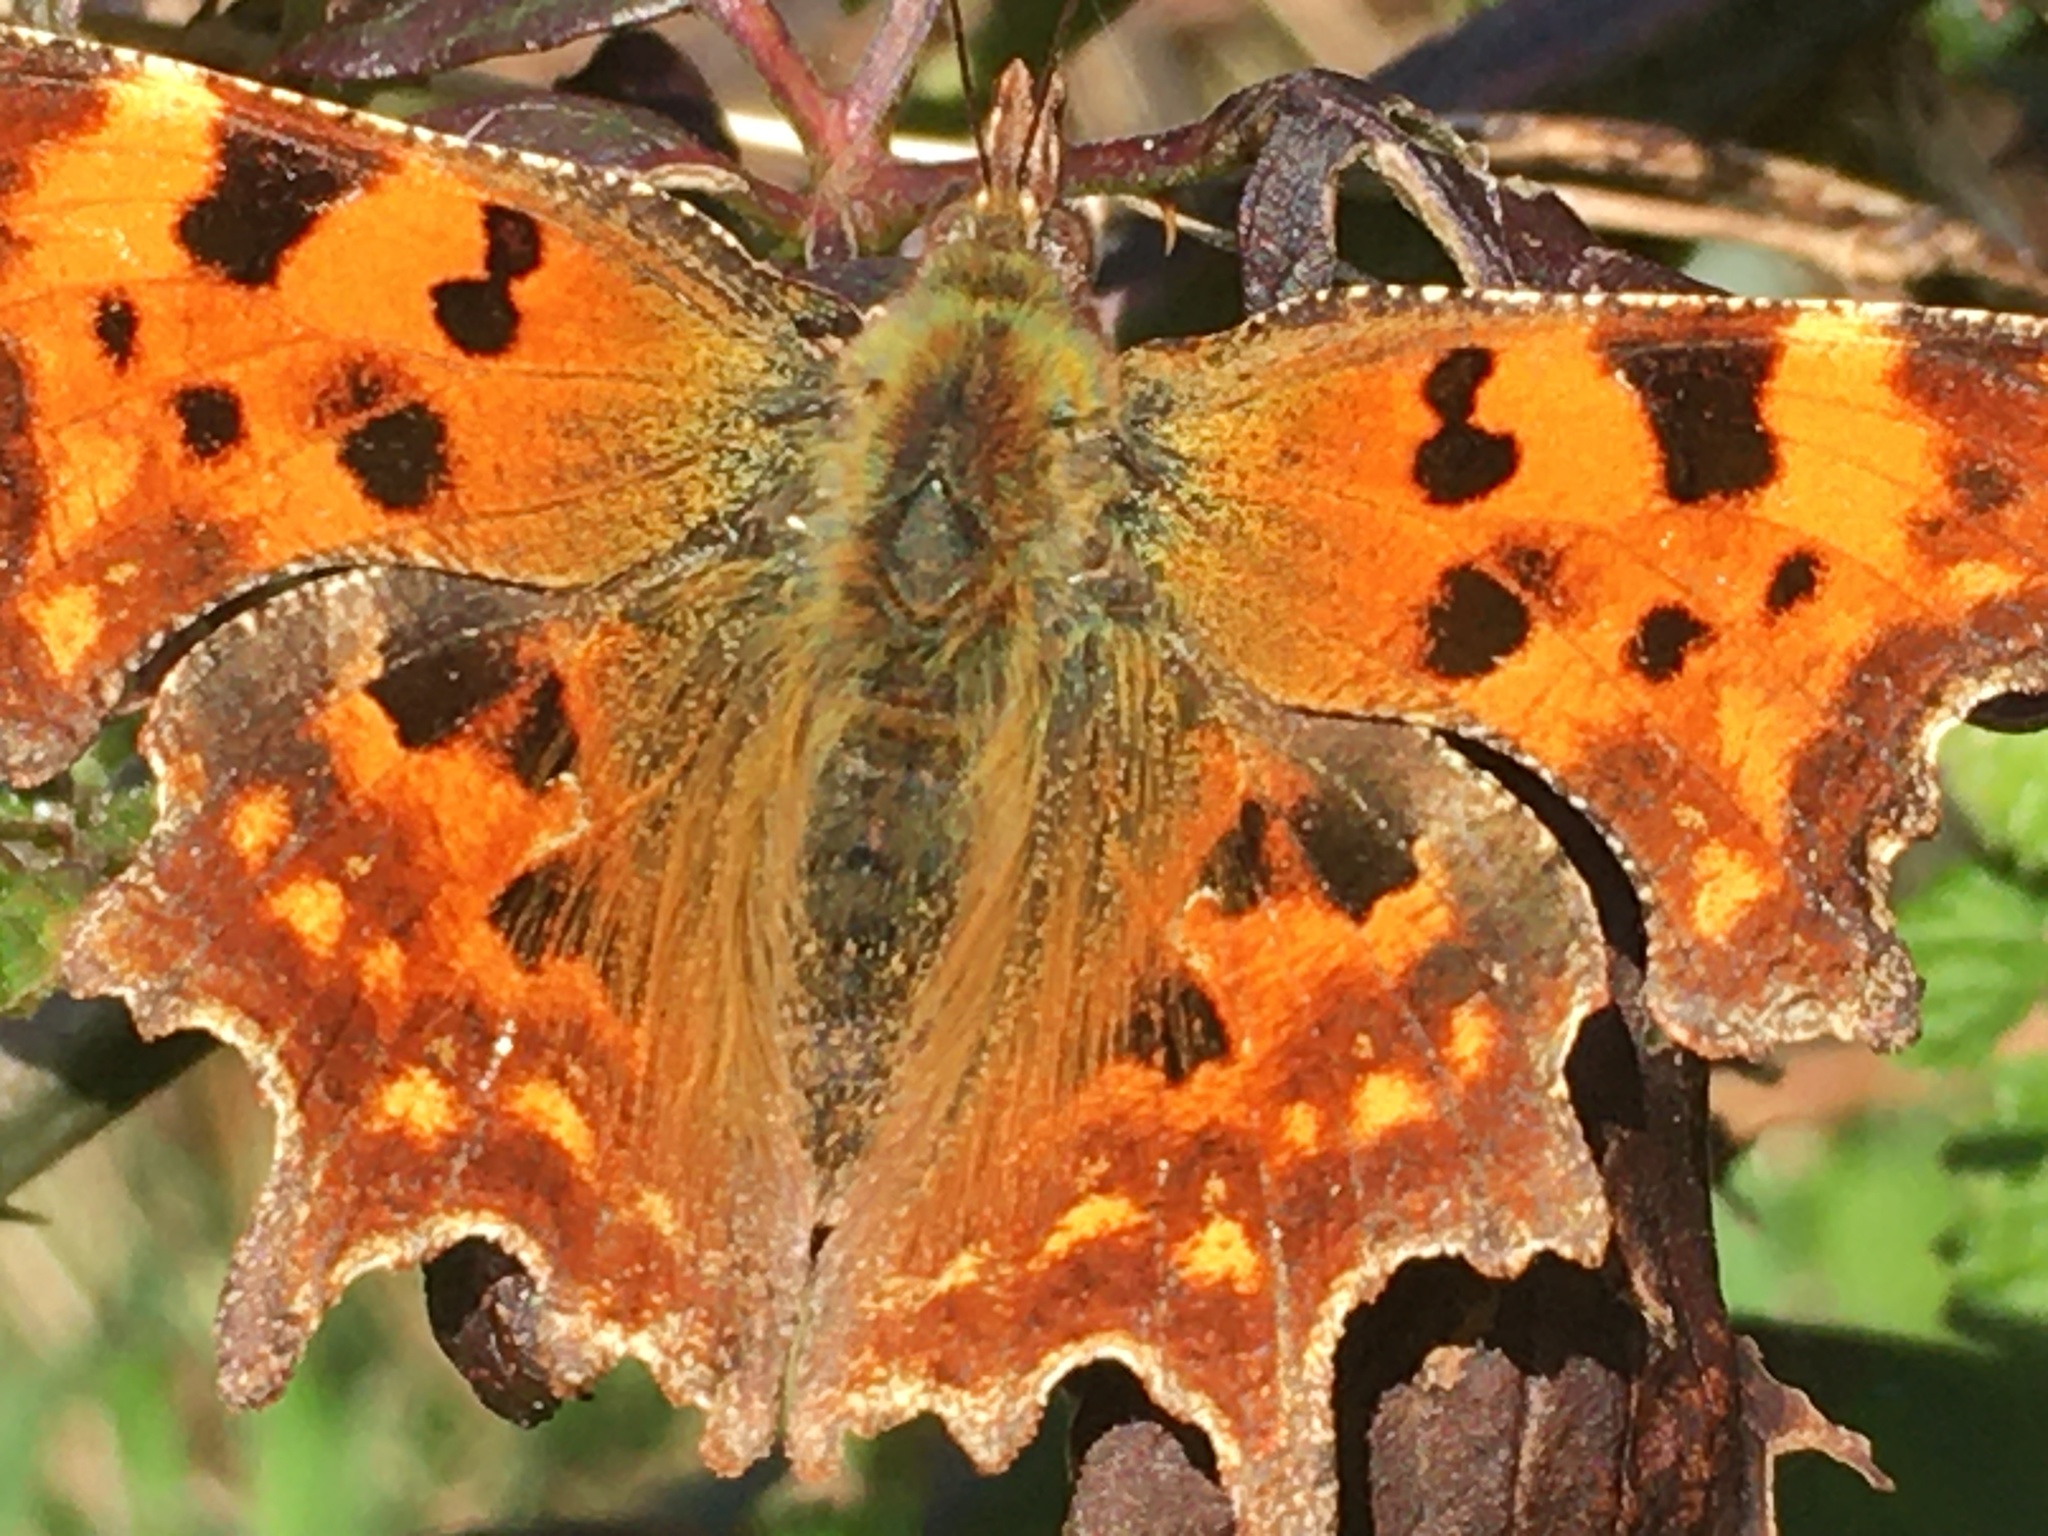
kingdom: Animalia
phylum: Arthropoda
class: Insecta
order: Lepidoptera
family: Nymphalidae
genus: Polygonia
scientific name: Polygonia c-album
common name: Comma
